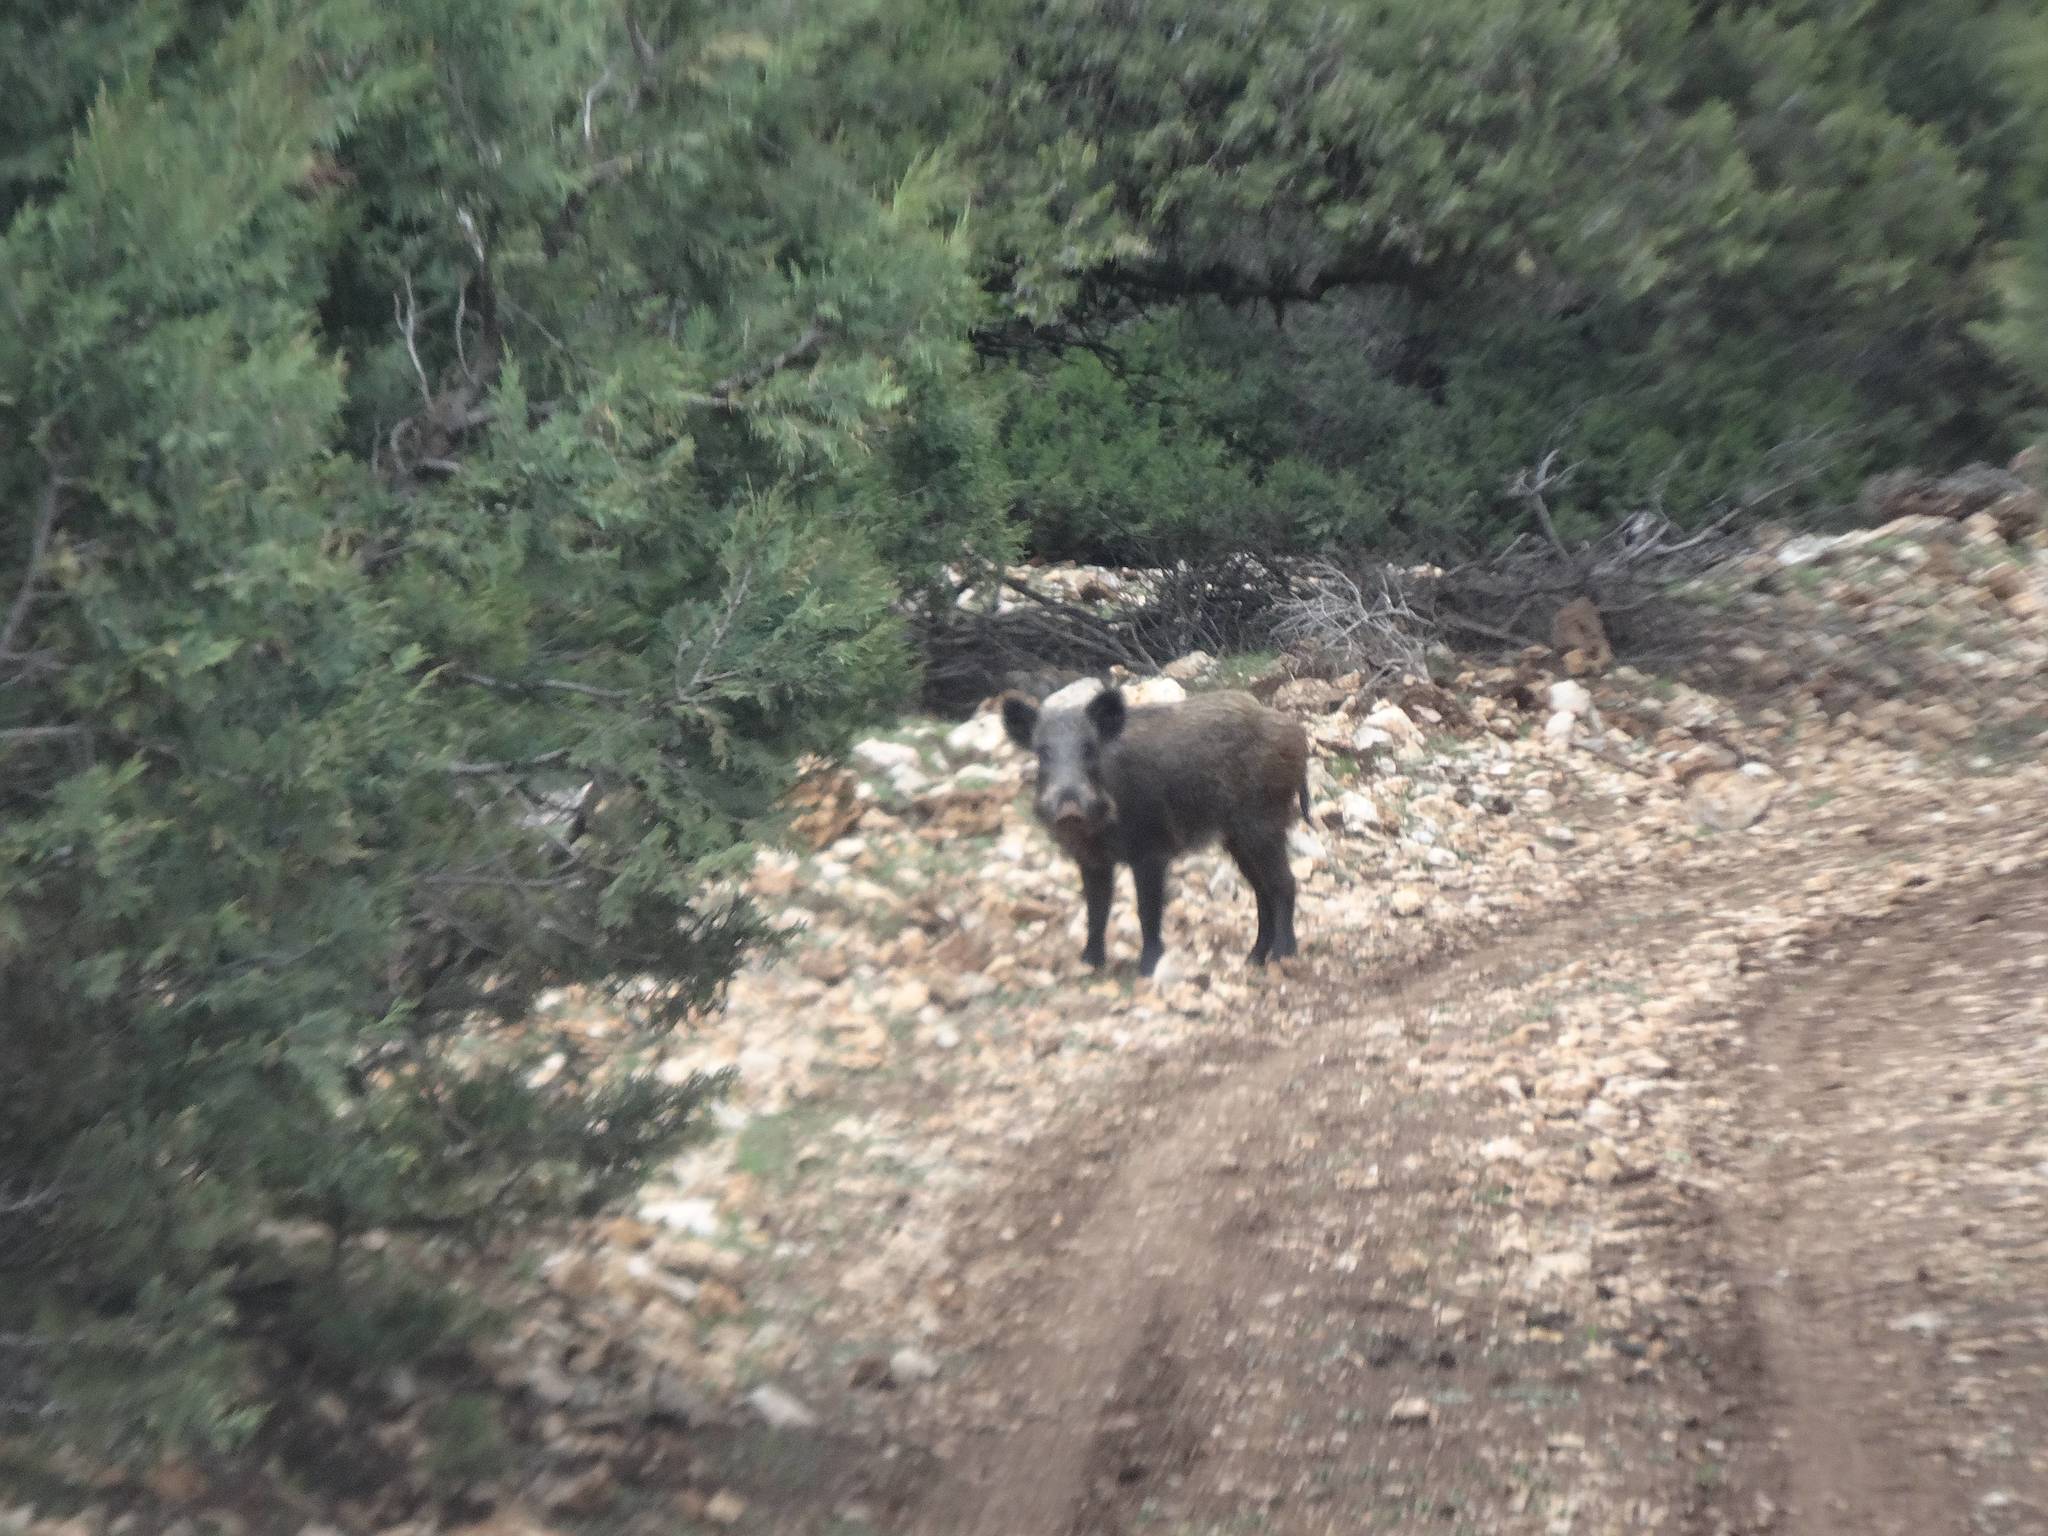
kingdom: Animalia
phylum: Chordata
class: Mammalia
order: Artiodactyla
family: Suidae
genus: Sus
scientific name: Sus scrofa
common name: Wild boar
